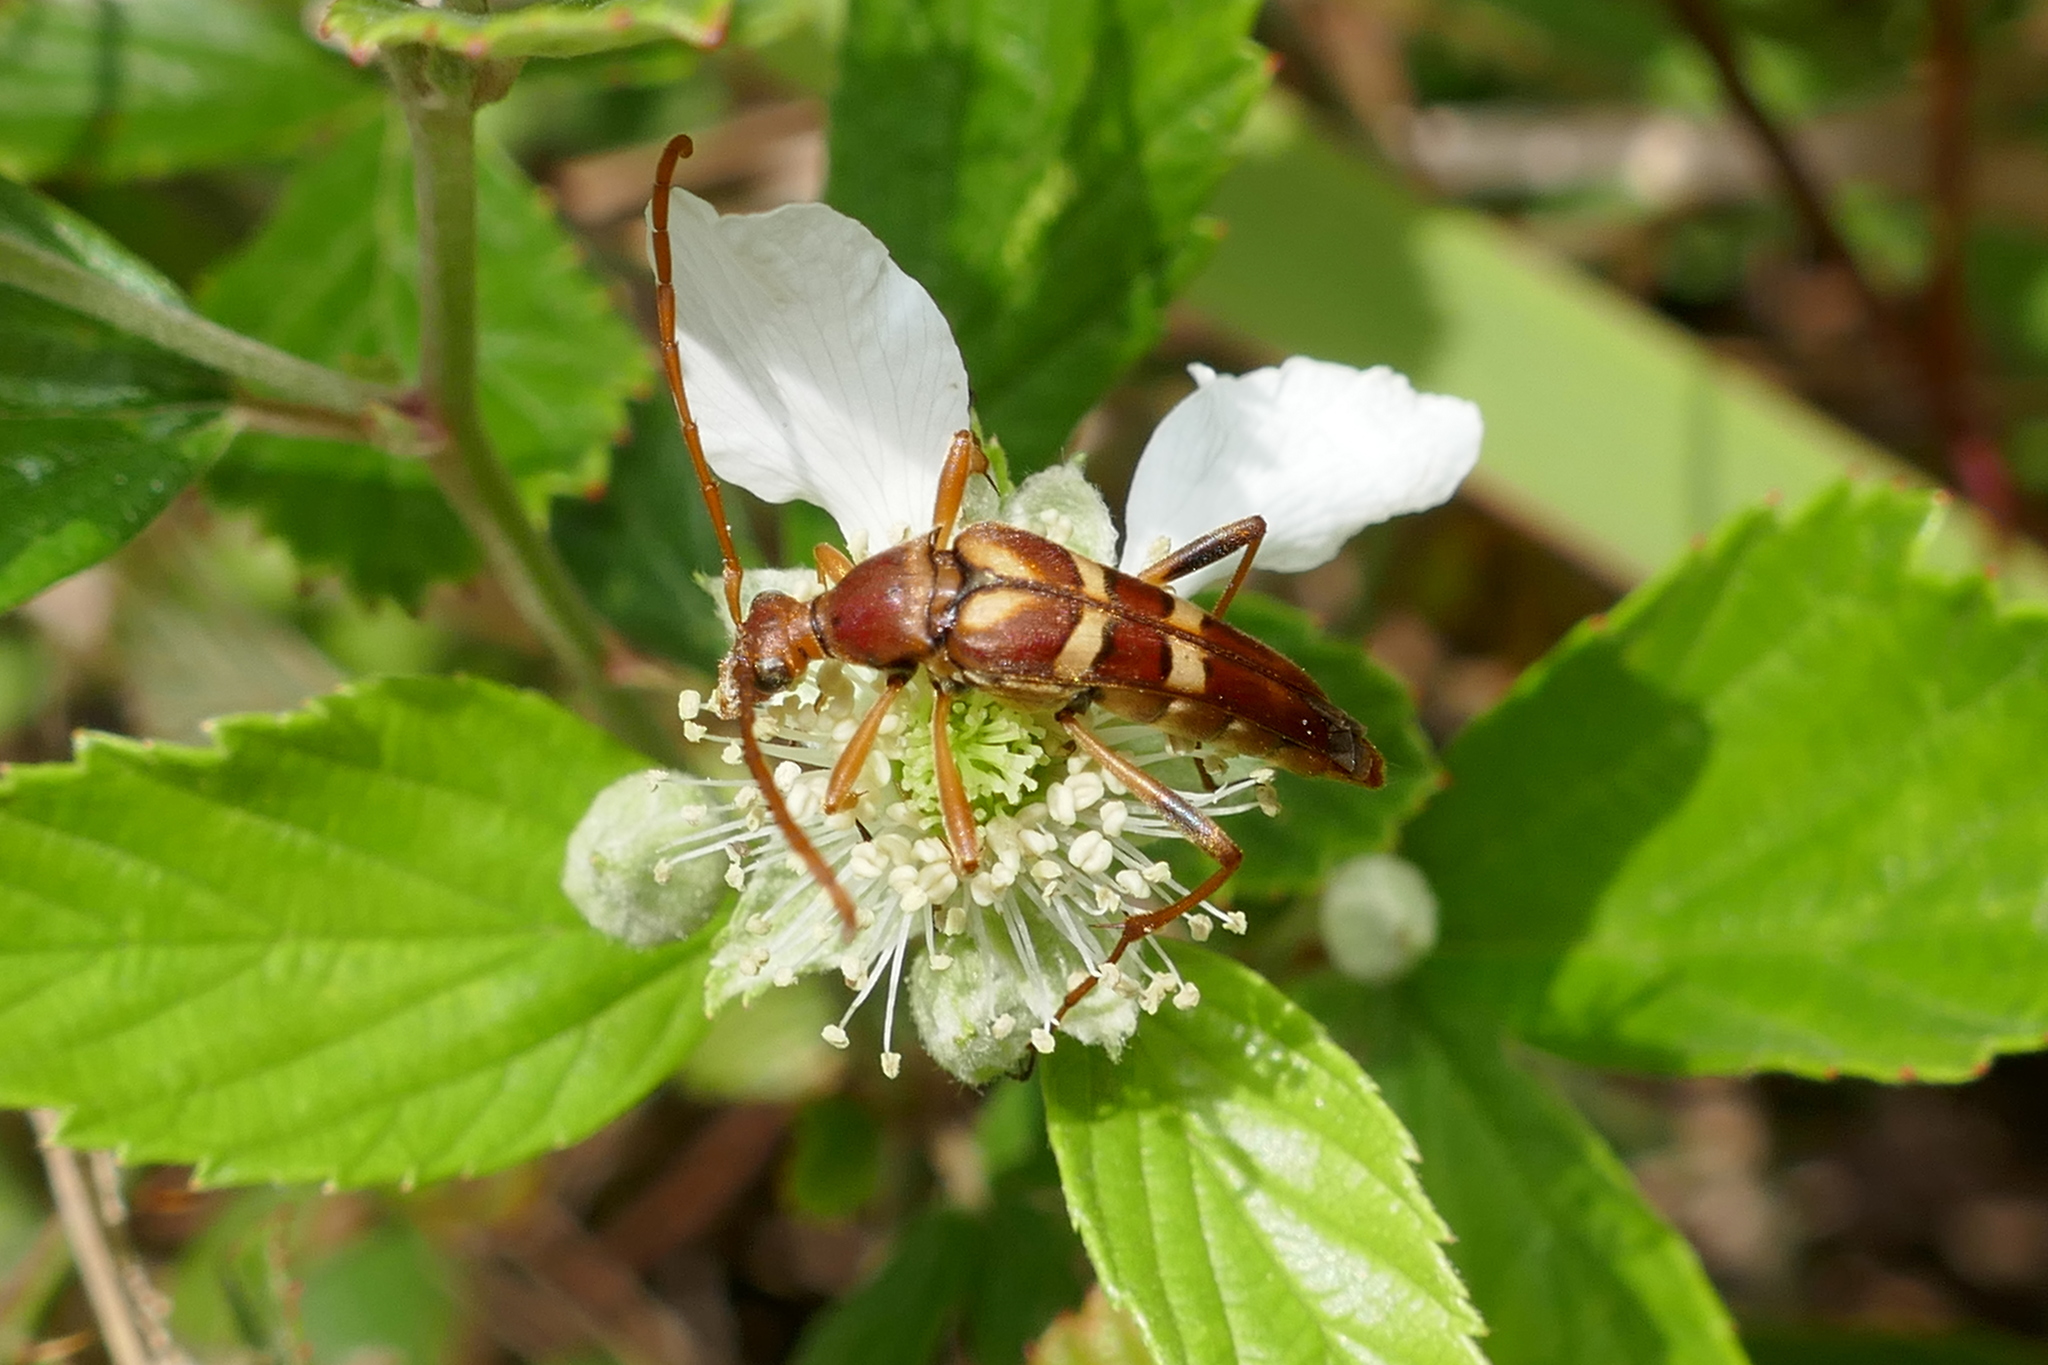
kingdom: Animalia
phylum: Arthropoda
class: Insecta
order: Coleoptera
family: Cerambycidae
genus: Strangalia
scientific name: Strangalia strigosa
